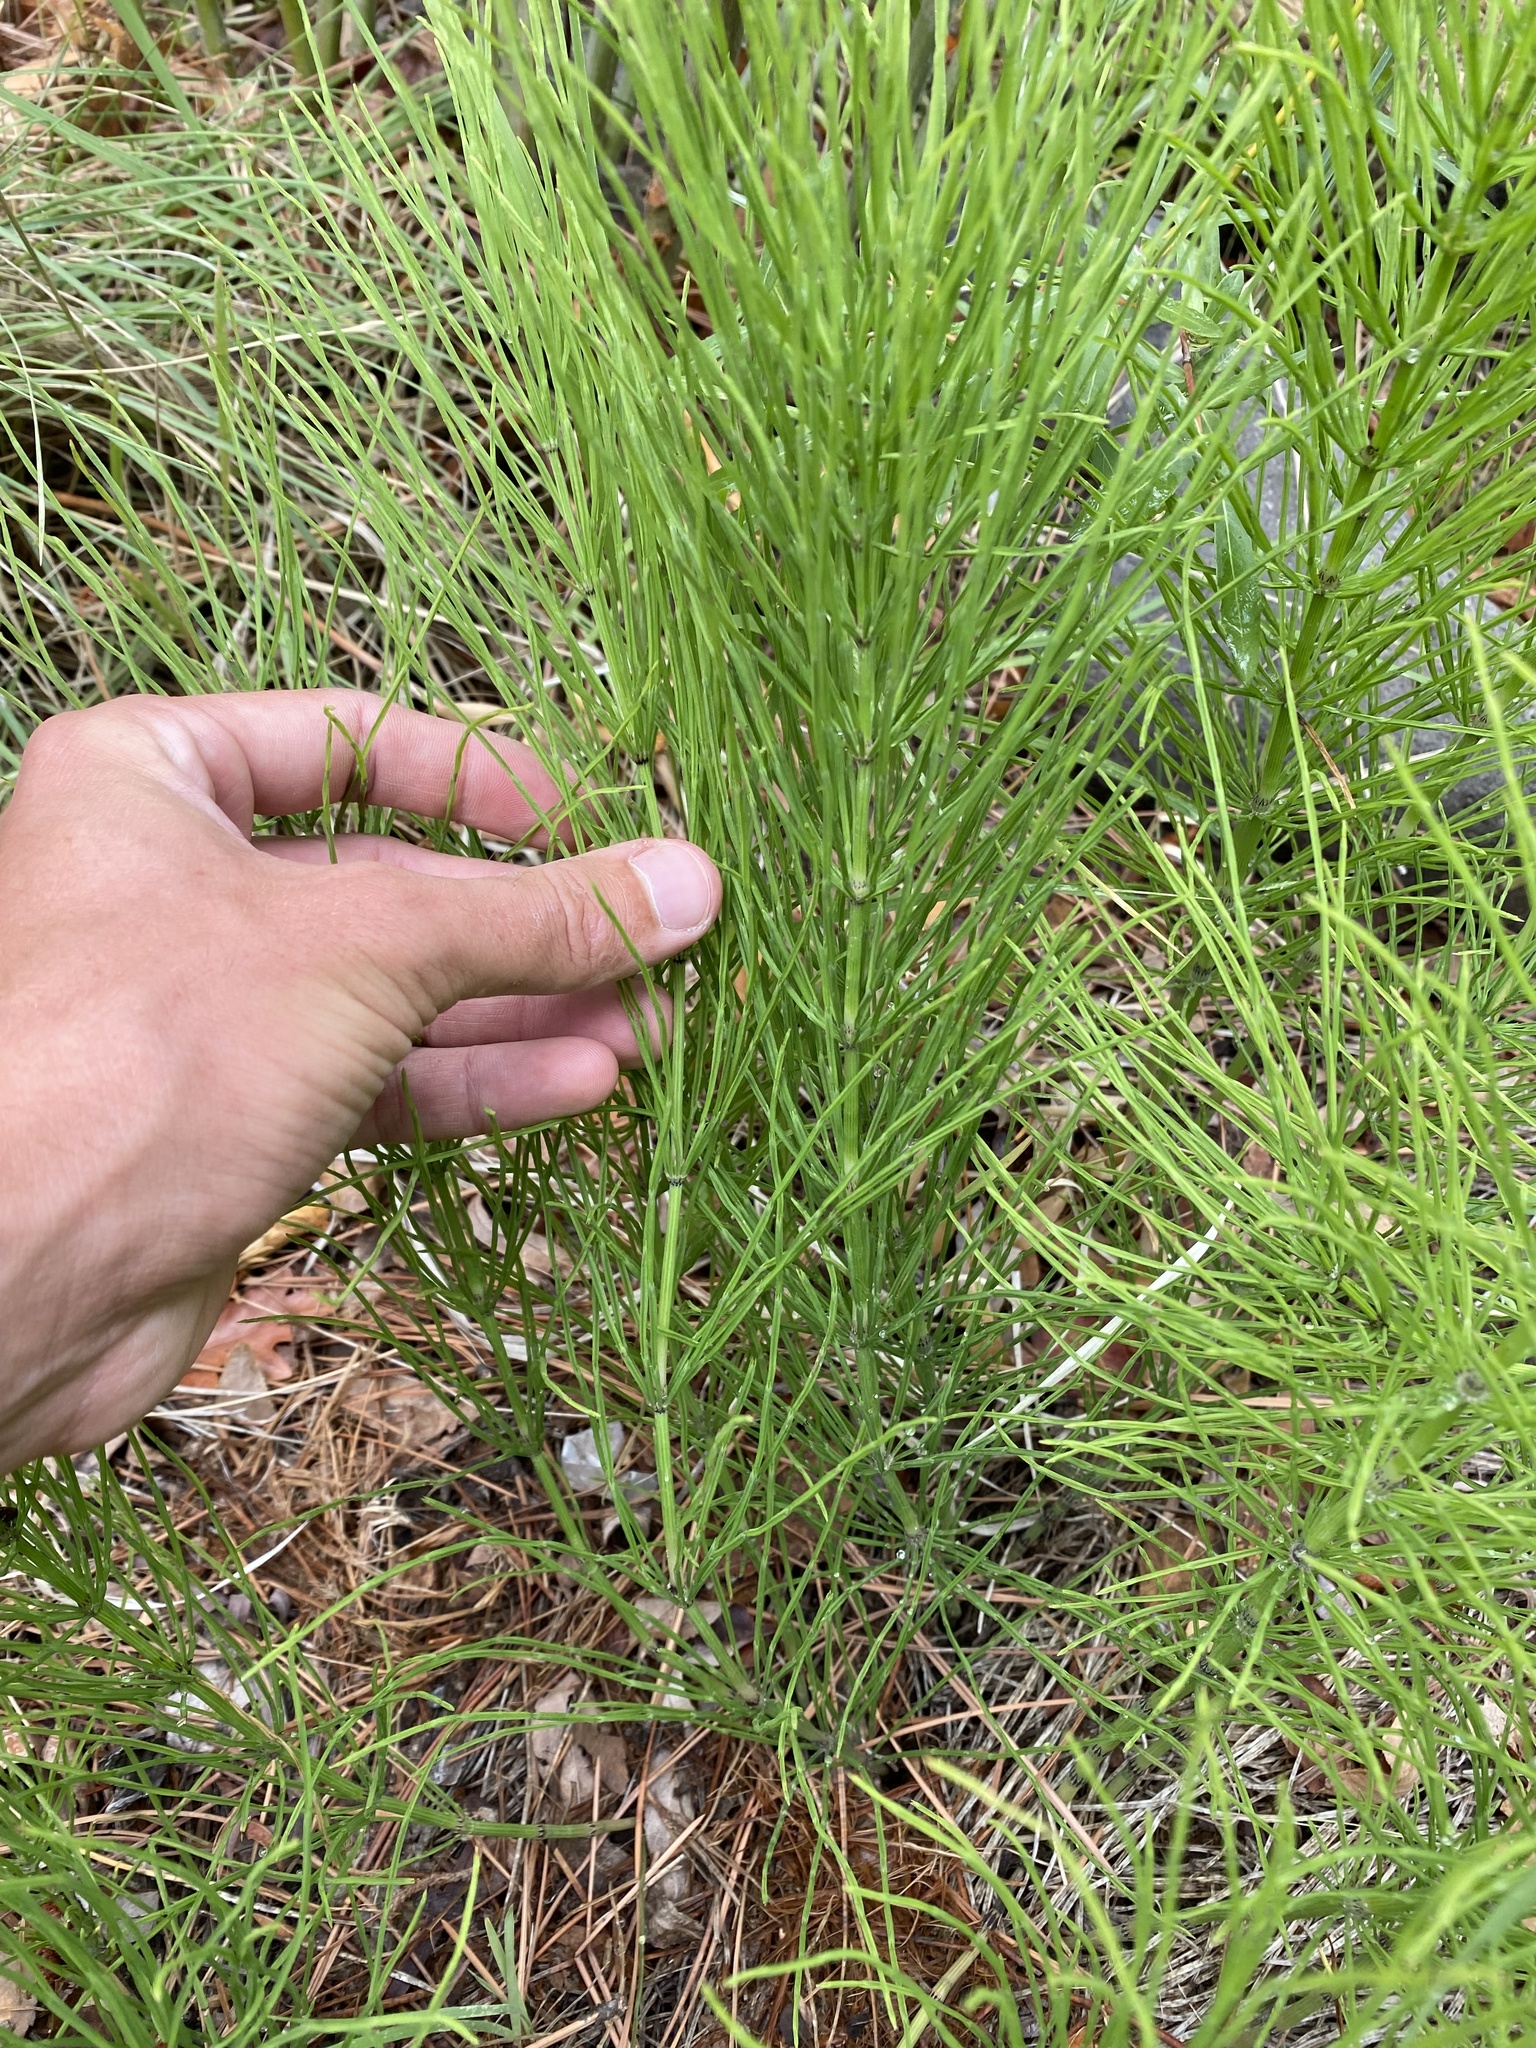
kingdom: Plantae
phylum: Tracheophyta
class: Polypodiopsida
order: Equisetales
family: Equisetaceae
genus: Equisetum
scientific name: Equisetum arvense
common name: Field horsetail
